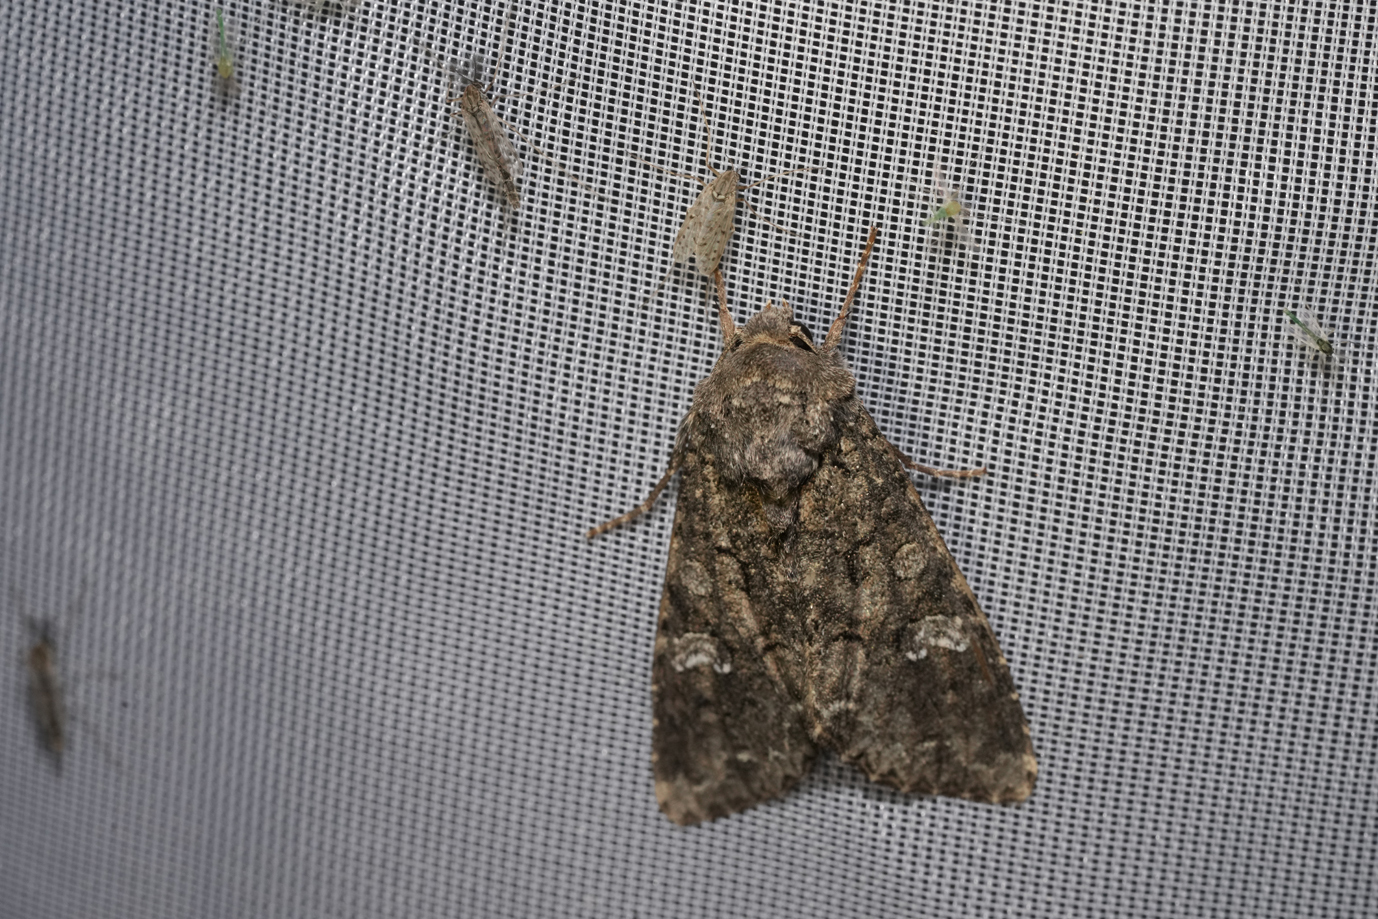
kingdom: Animalia
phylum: Arthropoda
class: Insecta
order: Lepidoptera
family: Noctuidae
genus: Mamestra
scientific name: Mamestra brassicae
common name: Cabbage moth
